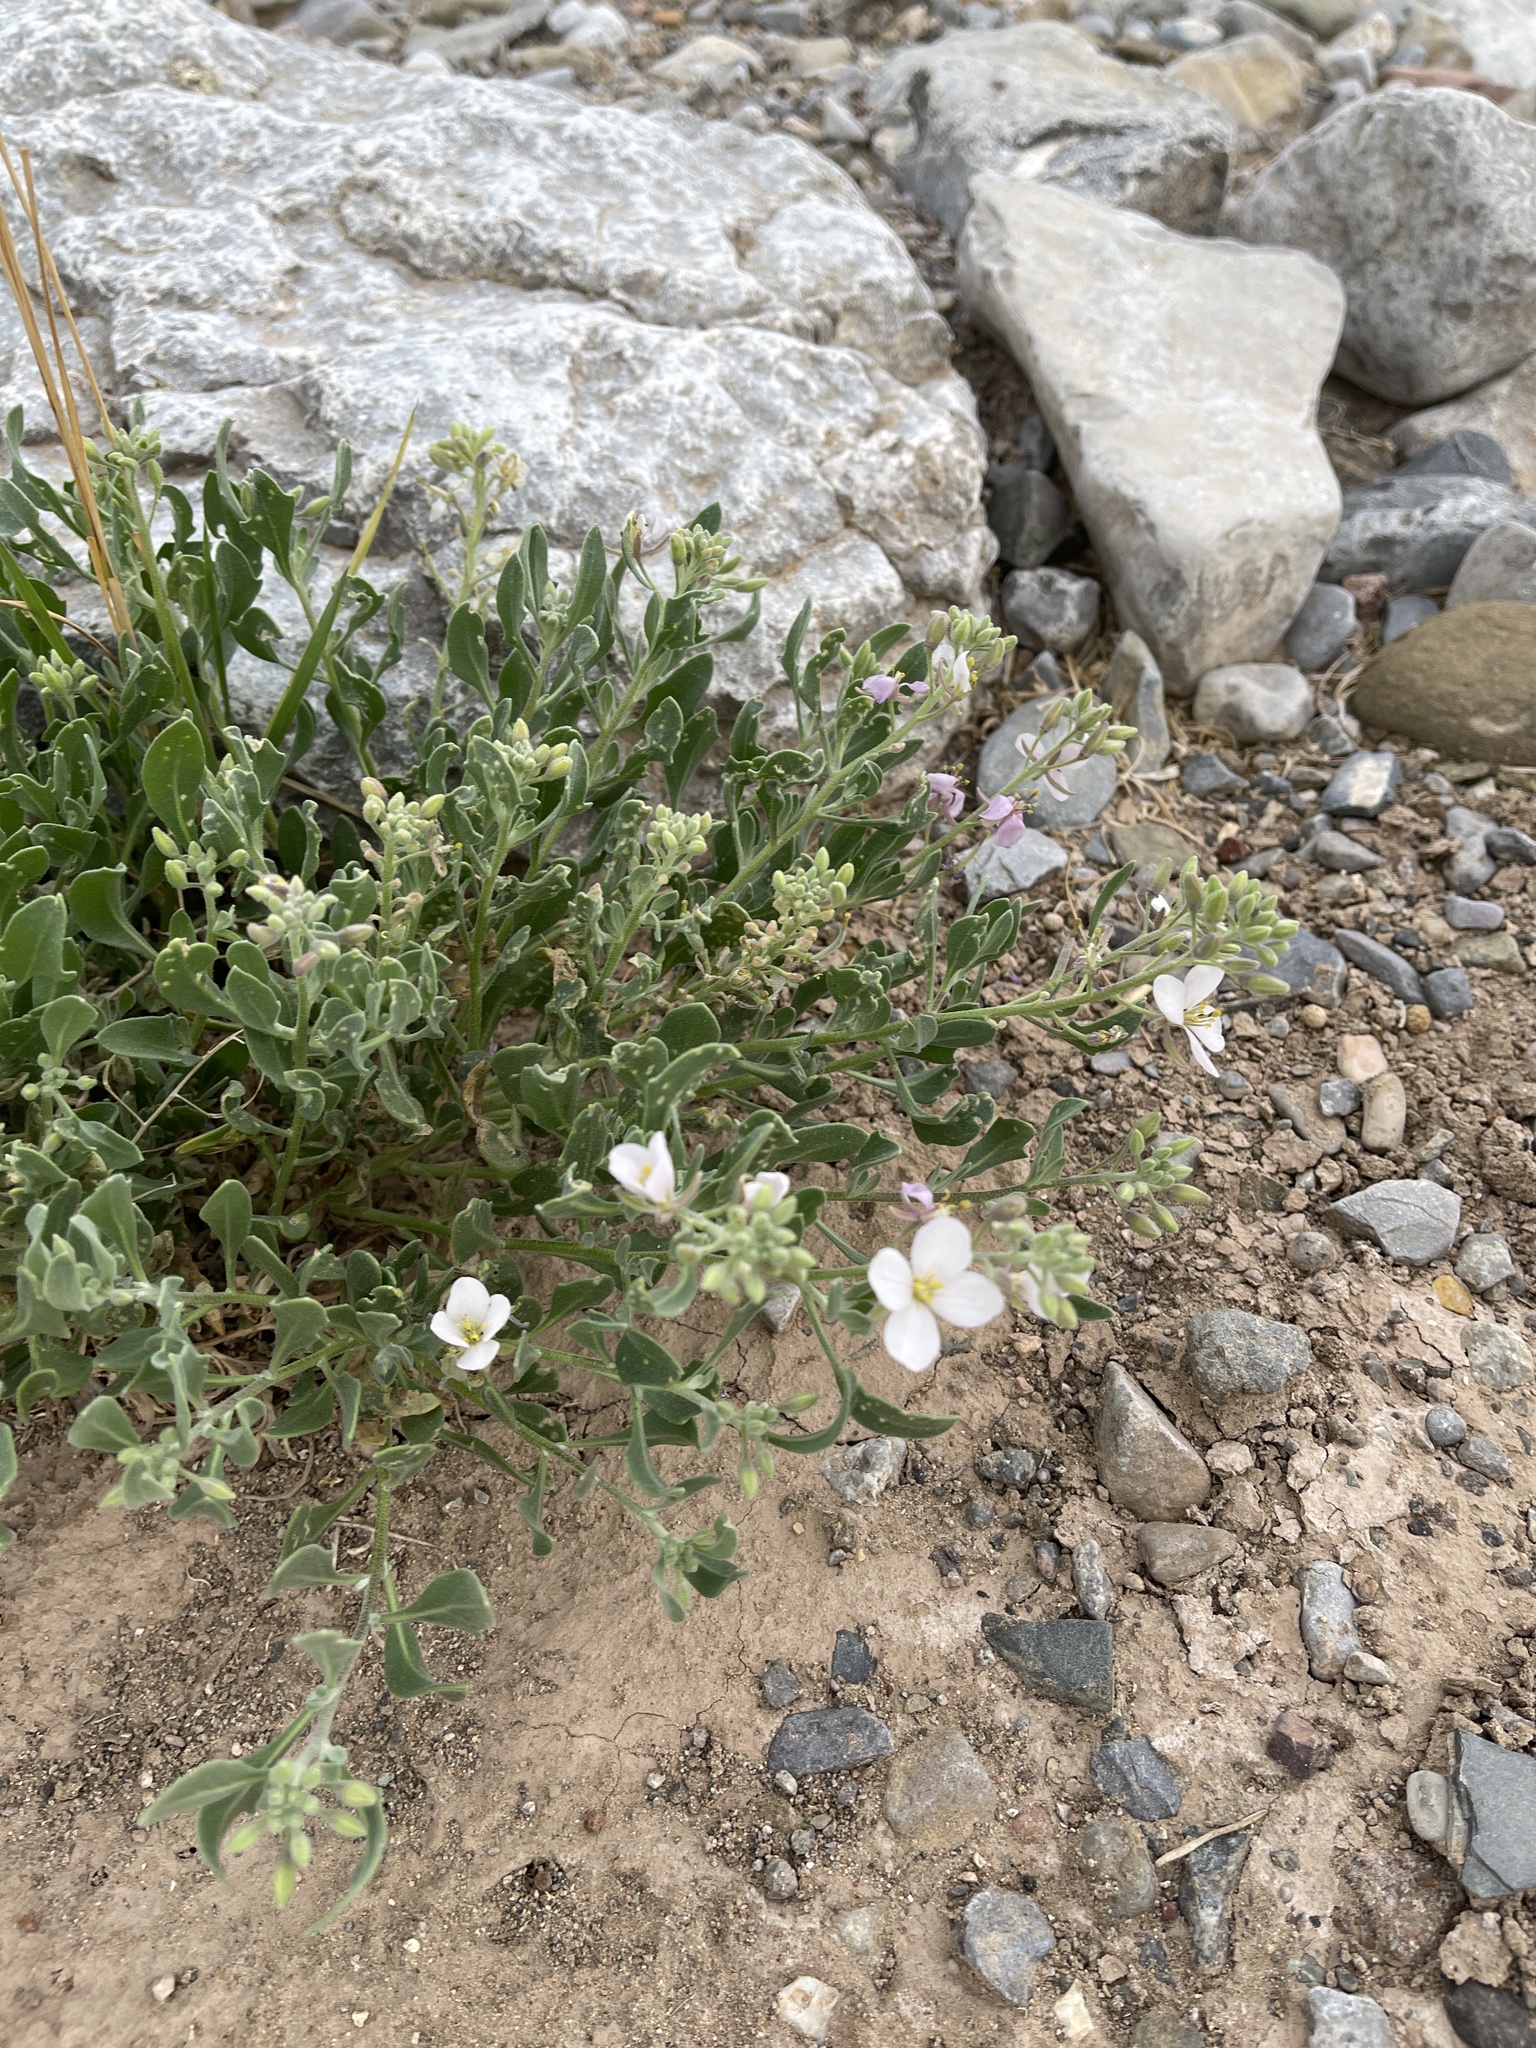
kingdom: Plantae
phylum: Tracheophyta
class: Magnoliopsida
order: Brassicales
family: Brassicaceae
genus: Nerisyrenia
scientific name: Nerisyrenia camporum
